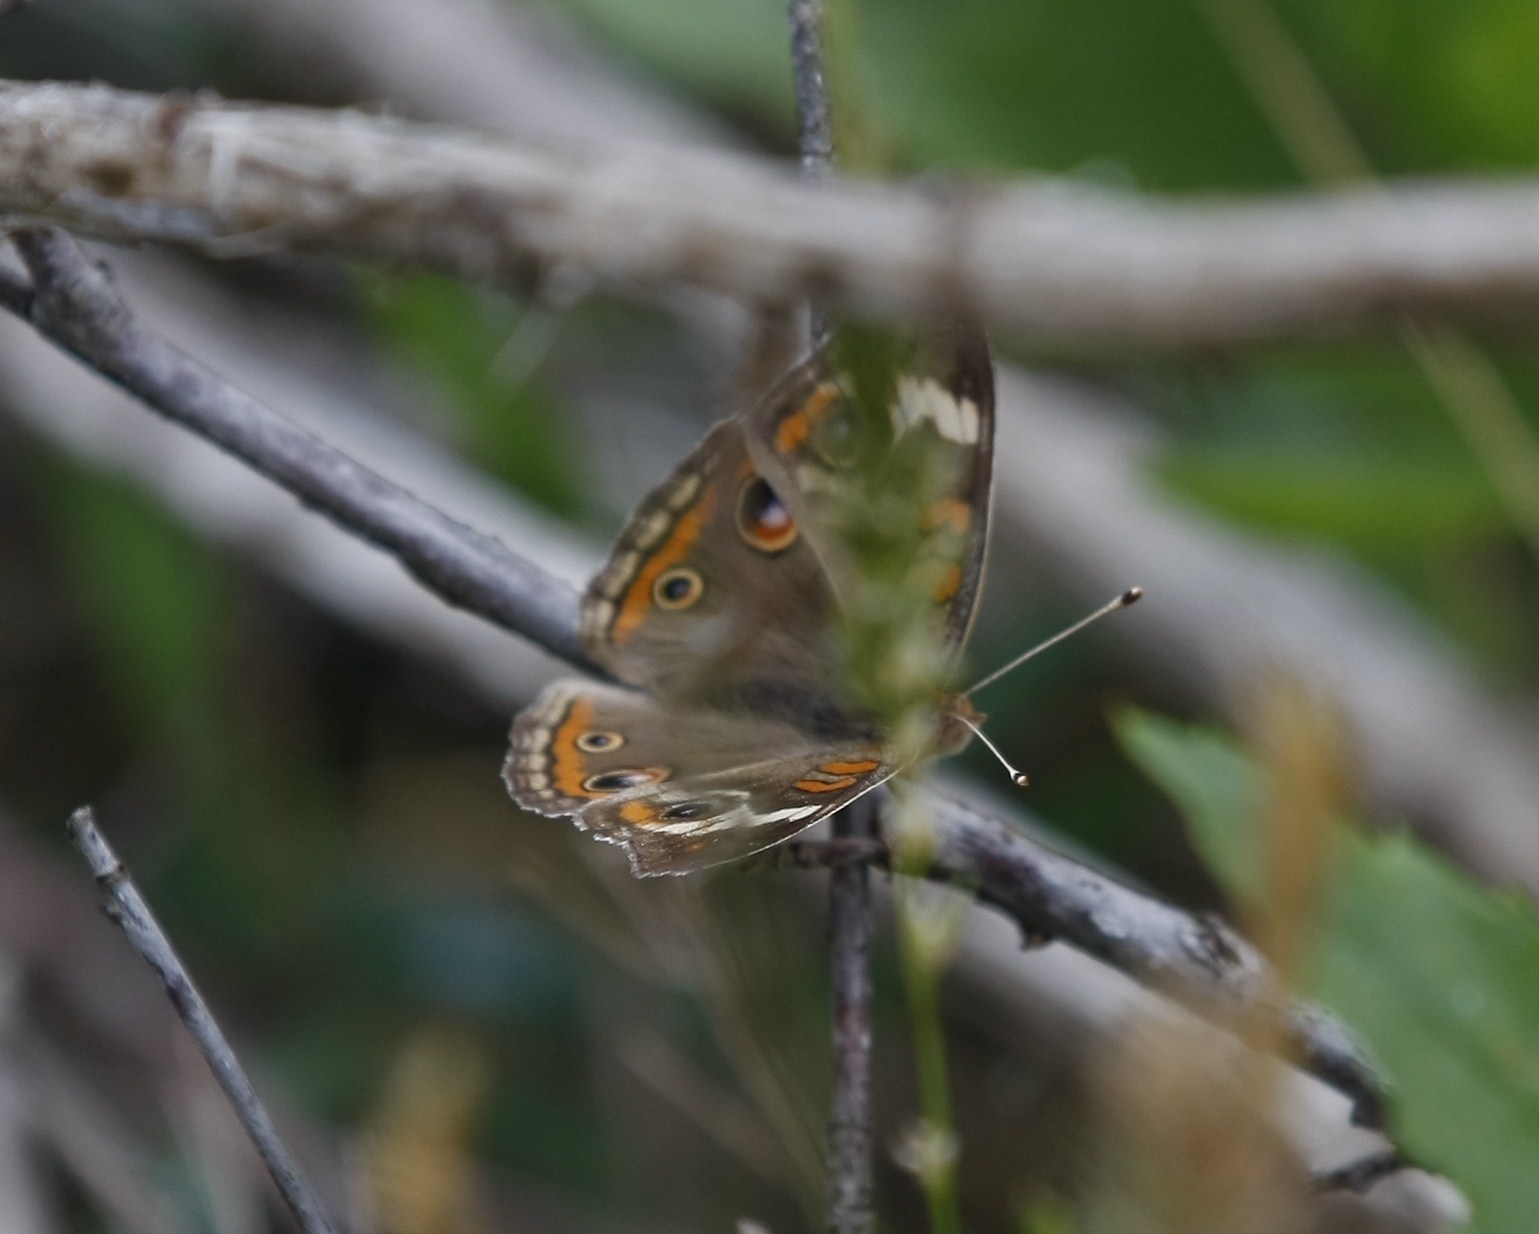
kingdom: Animalia
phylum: Arthropoda
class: Insecta
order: Lepidoptera
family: Nymphalidae
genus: Junonia
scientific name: Junonia coenia
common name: Common buckeye
